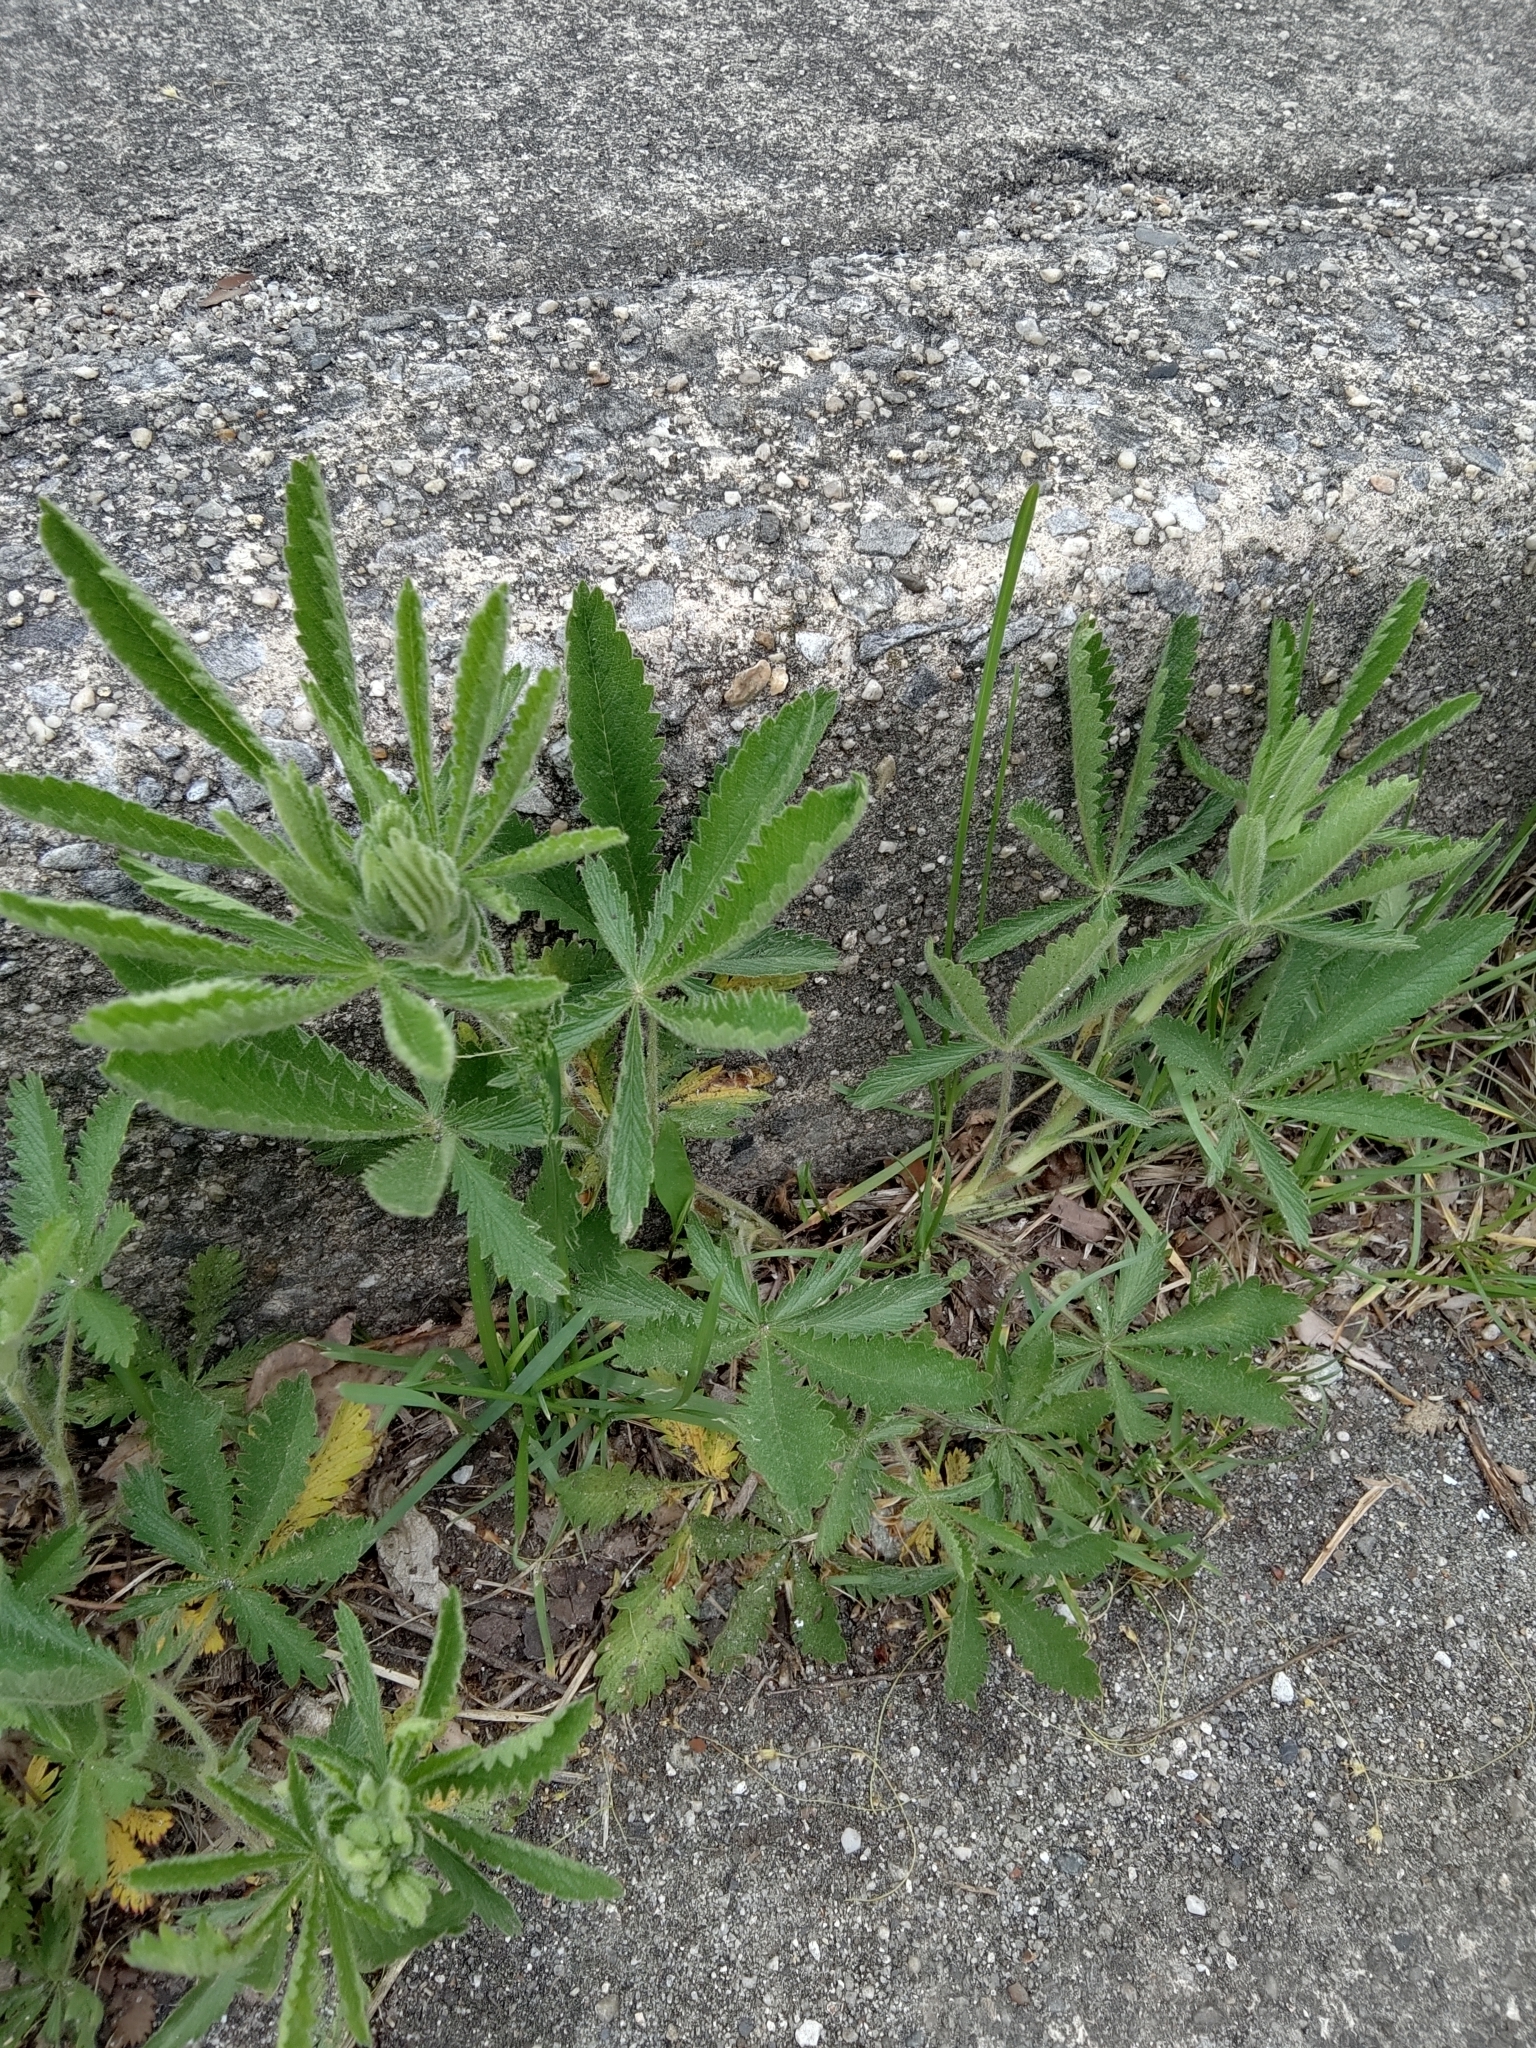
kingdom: Plantae
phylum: Tracheophyta
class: Magnoliopsida
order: Rosales
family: Rosaceae
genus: Potentilla
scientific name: Potentilla recta
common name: Sulphur cinquefoil
